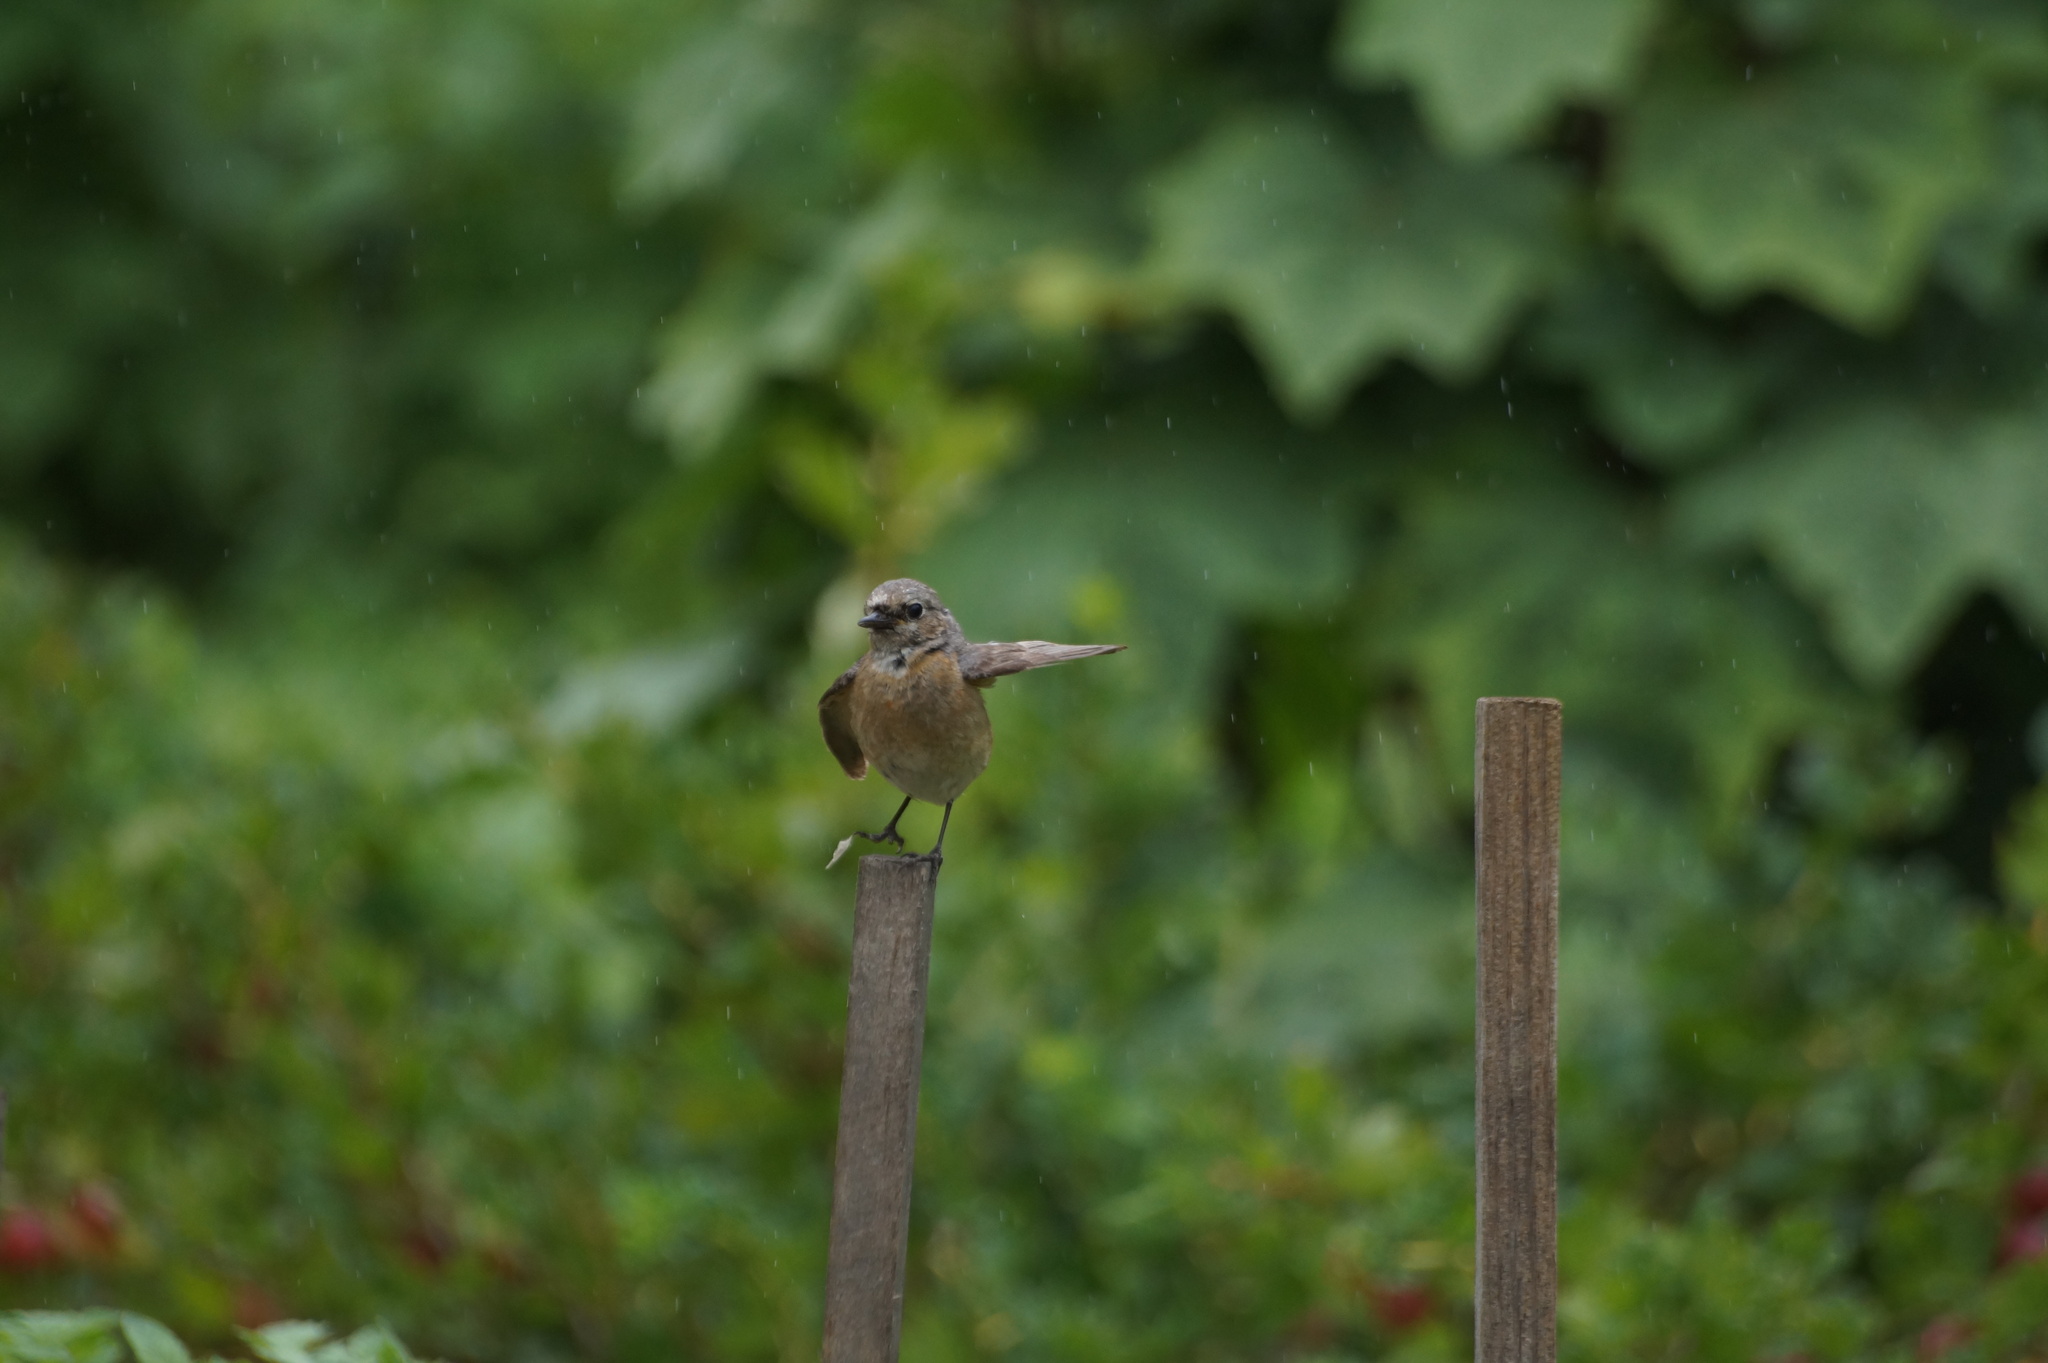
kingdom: Animalia
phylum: Chordata
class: Aves
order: Passeriformes
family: Muscicapidae
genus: Phoenicurus
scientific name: Phoenicurus phoenicurus
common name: Common redstart
